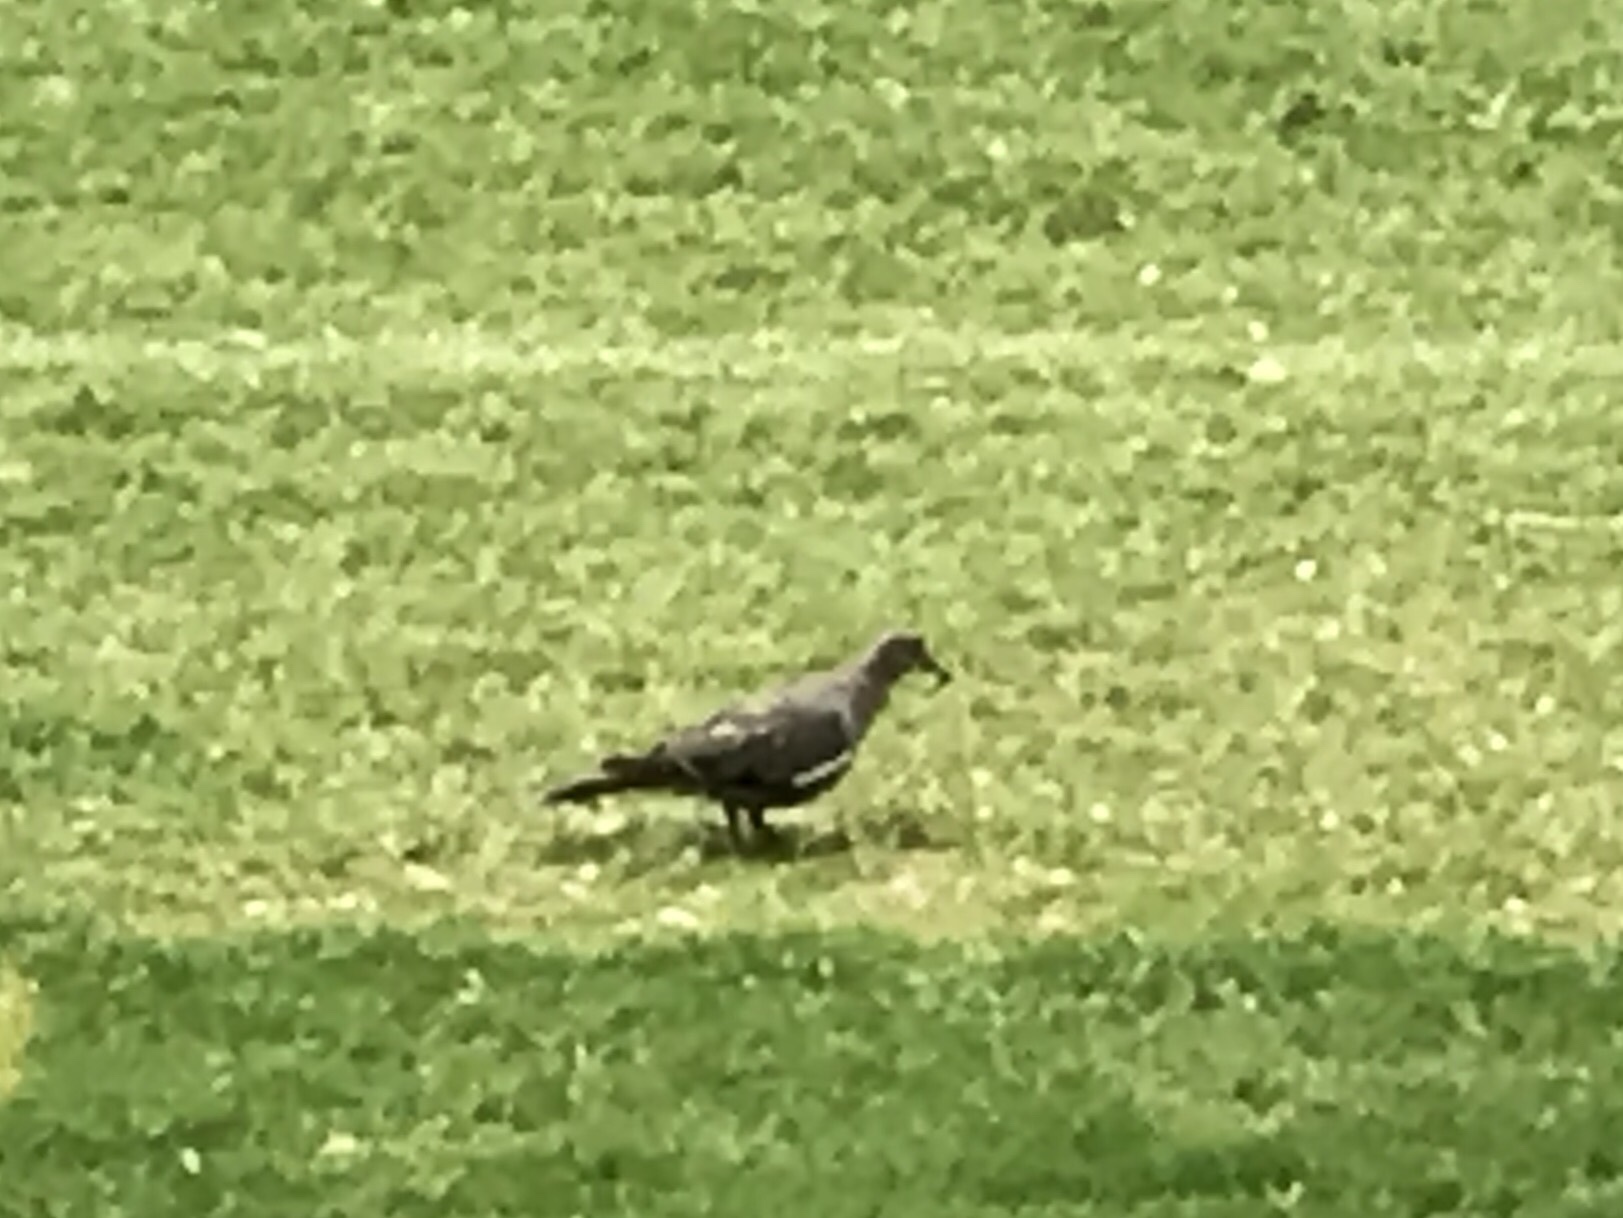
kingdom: Animalia
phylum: Chordata
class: Aves
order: Columbiformes
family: Columbidae
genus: Zenaida
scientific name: Zenaida asiatica
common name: White-winged dove
